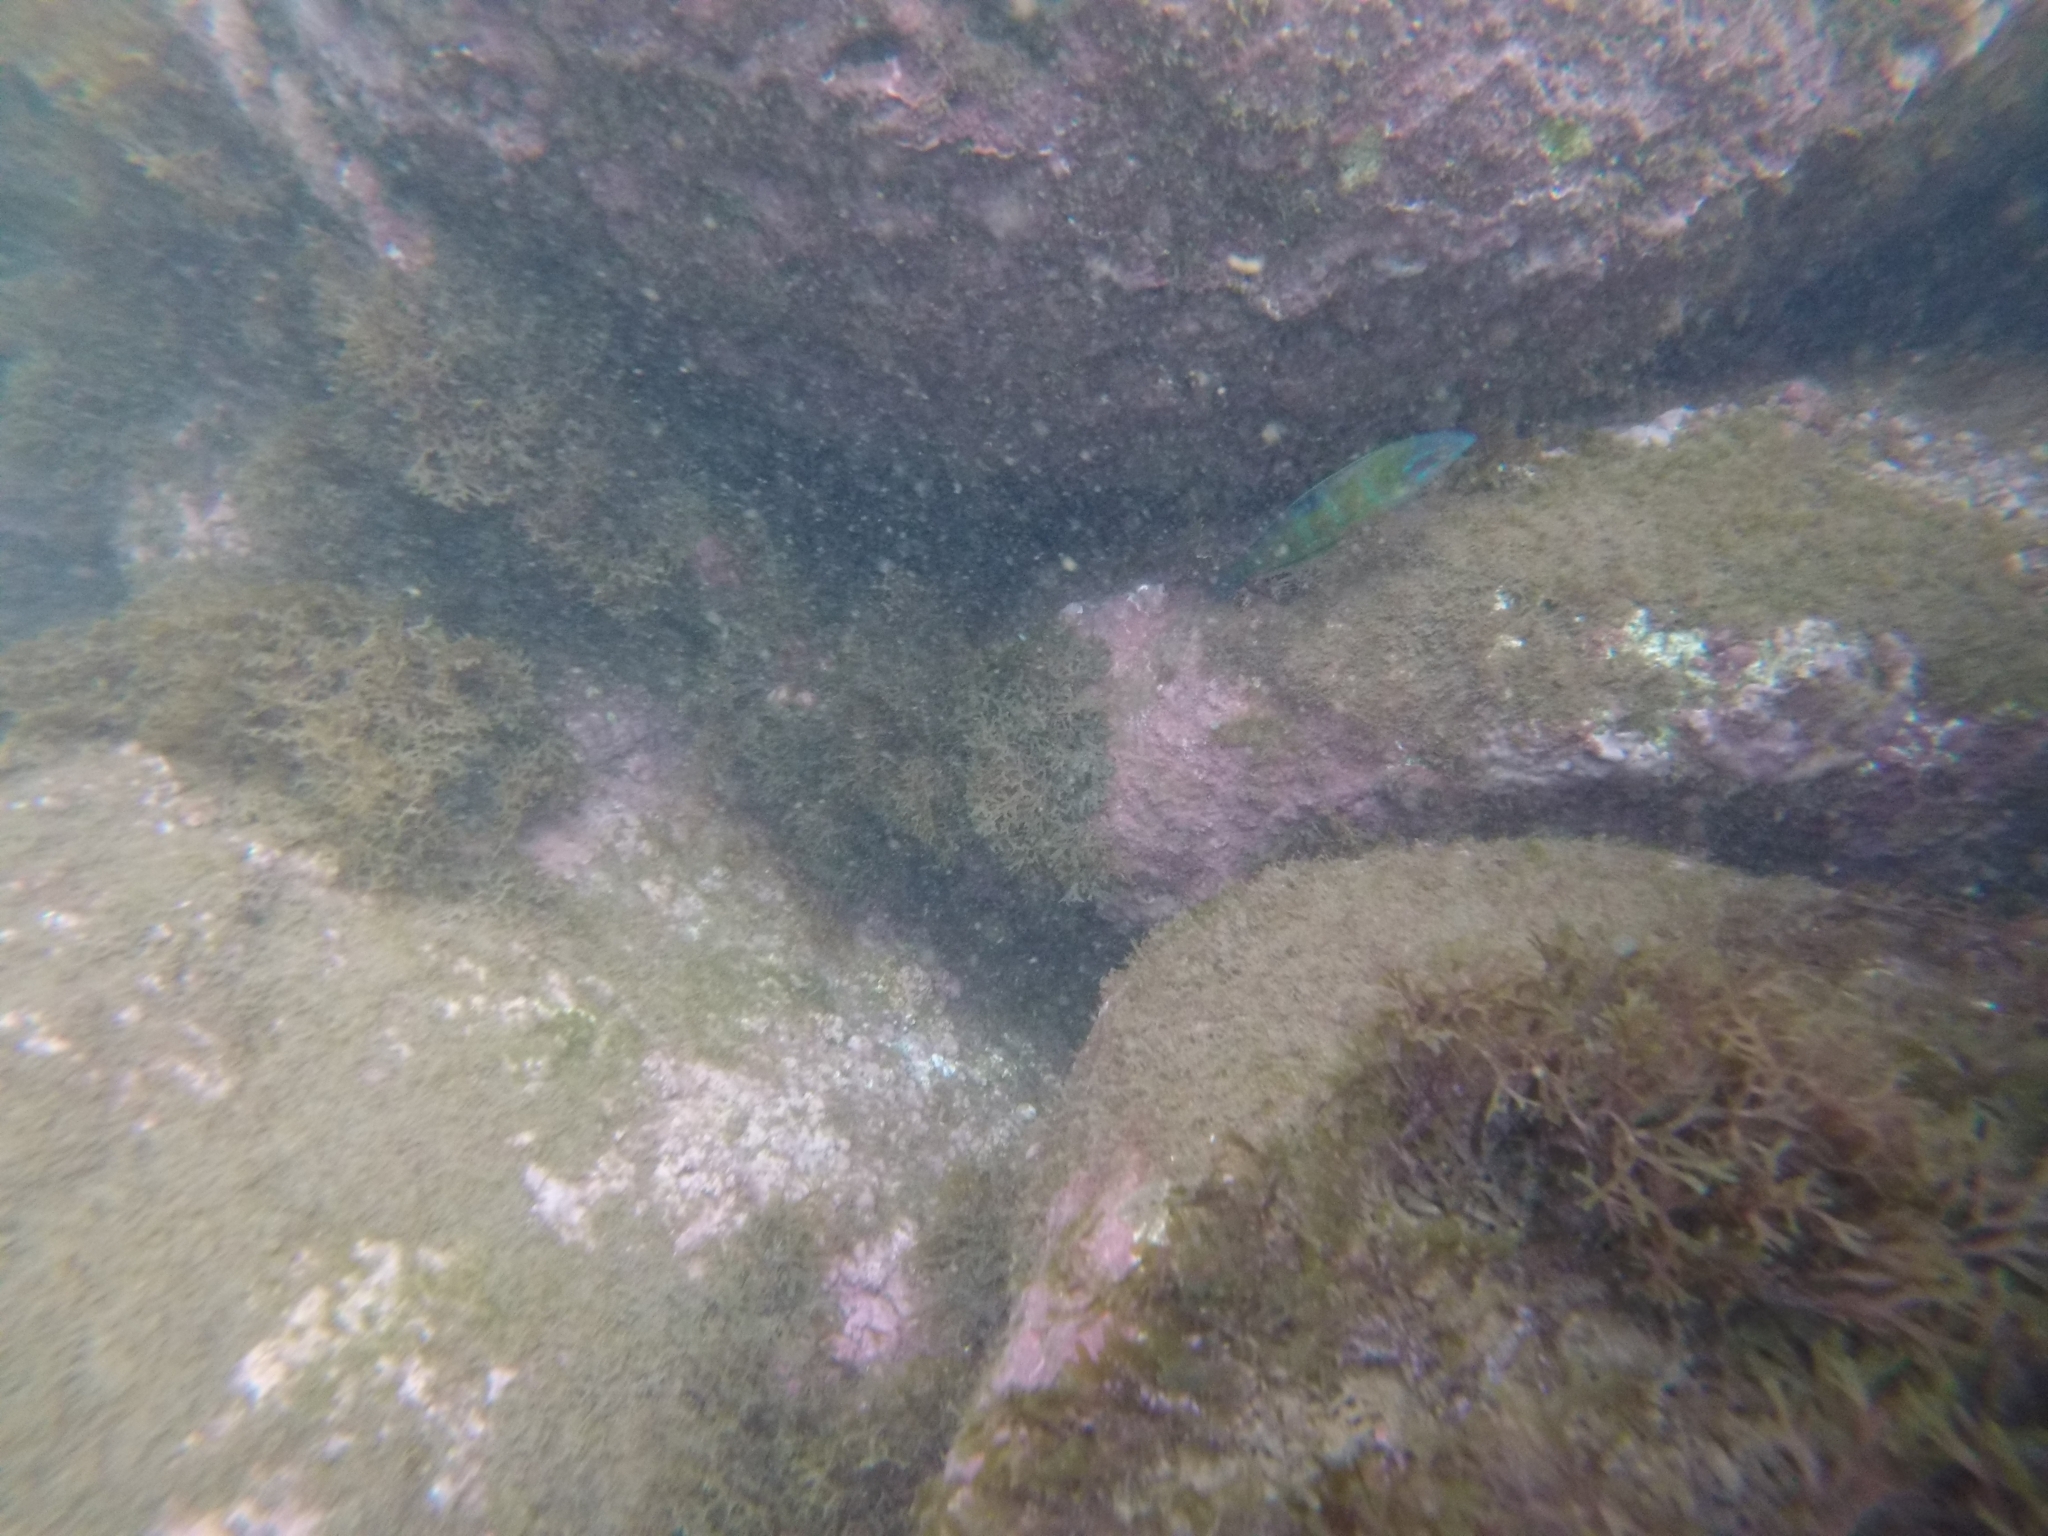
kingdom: Animalia
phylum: Chordata
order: Perciformes
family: Labridae
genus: Thalassoma
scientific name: Thalassoma pavo
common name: Ornate wrasse
